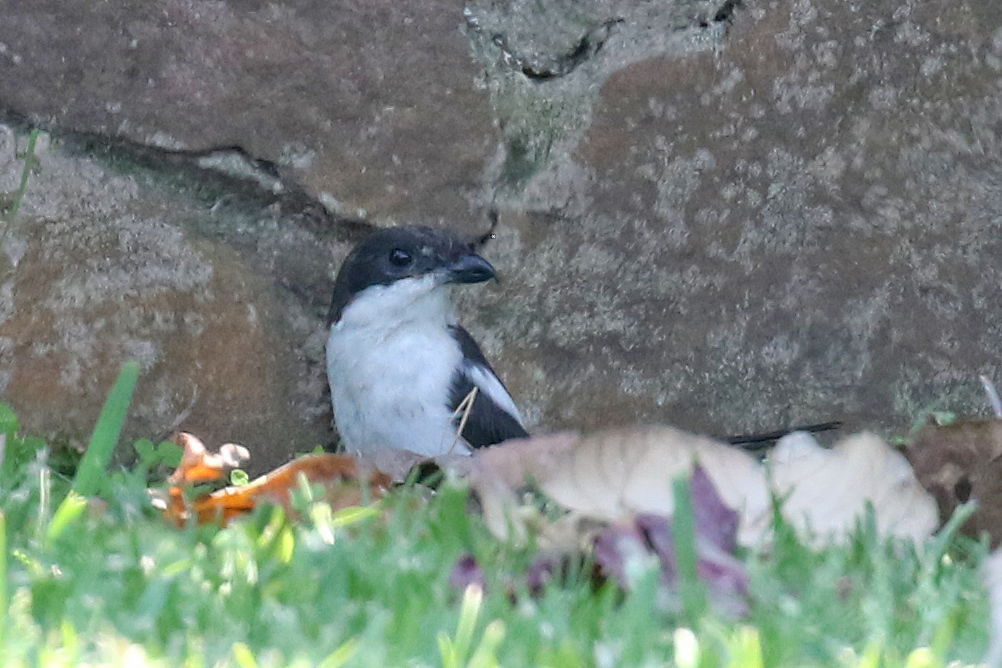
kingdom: Animalia
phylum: Chordata
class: Aves
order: Passeriformes
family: Laniidae
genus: Lanius
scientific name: Lanius collaris
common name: Southern fiscal
